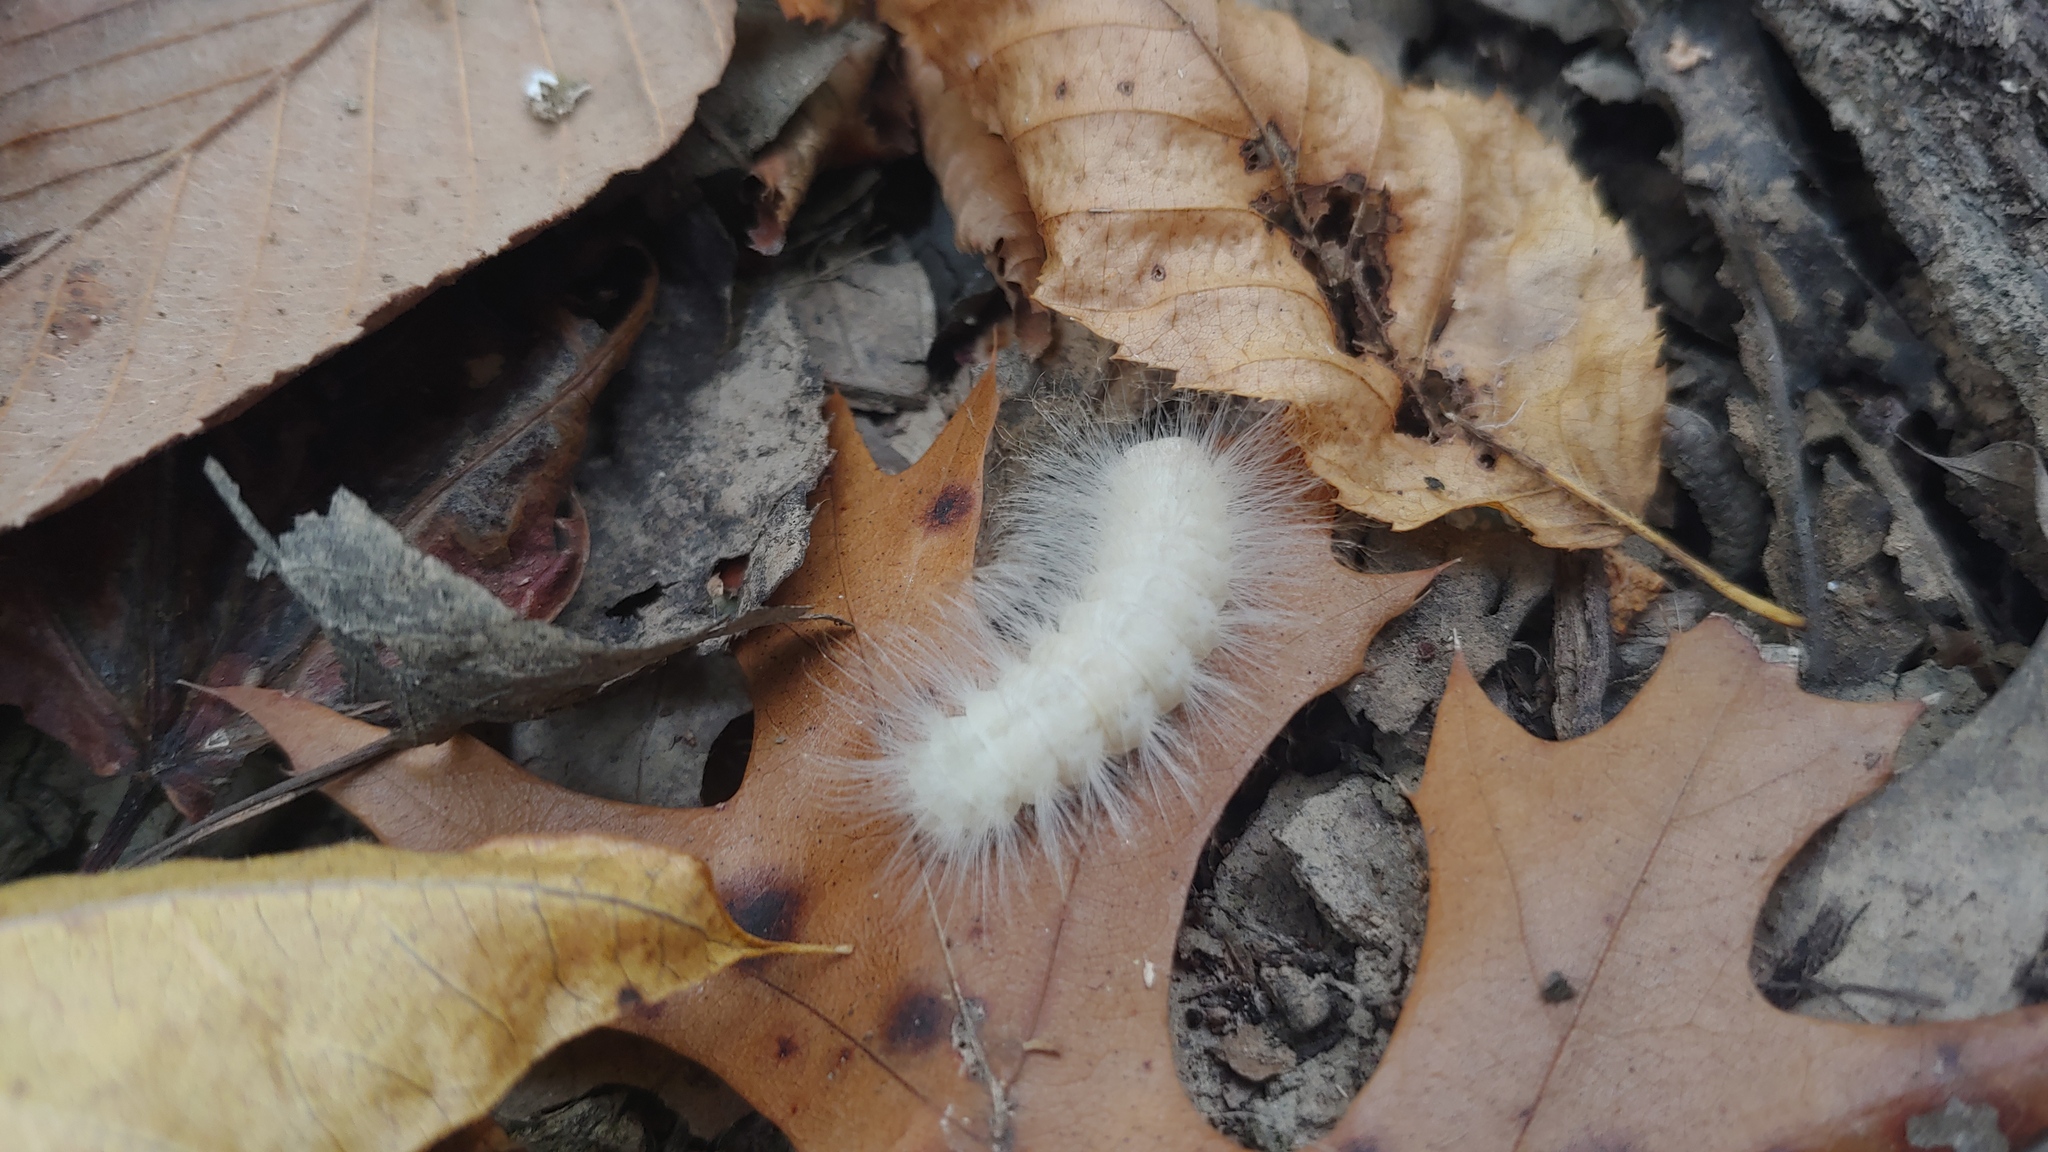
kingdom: Animalia
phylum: Arthropoda
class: Insecta
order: Lepidoptera
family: Noctuidae
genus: Charadra
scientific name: Charadra deridens
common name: Marbled tuffet
